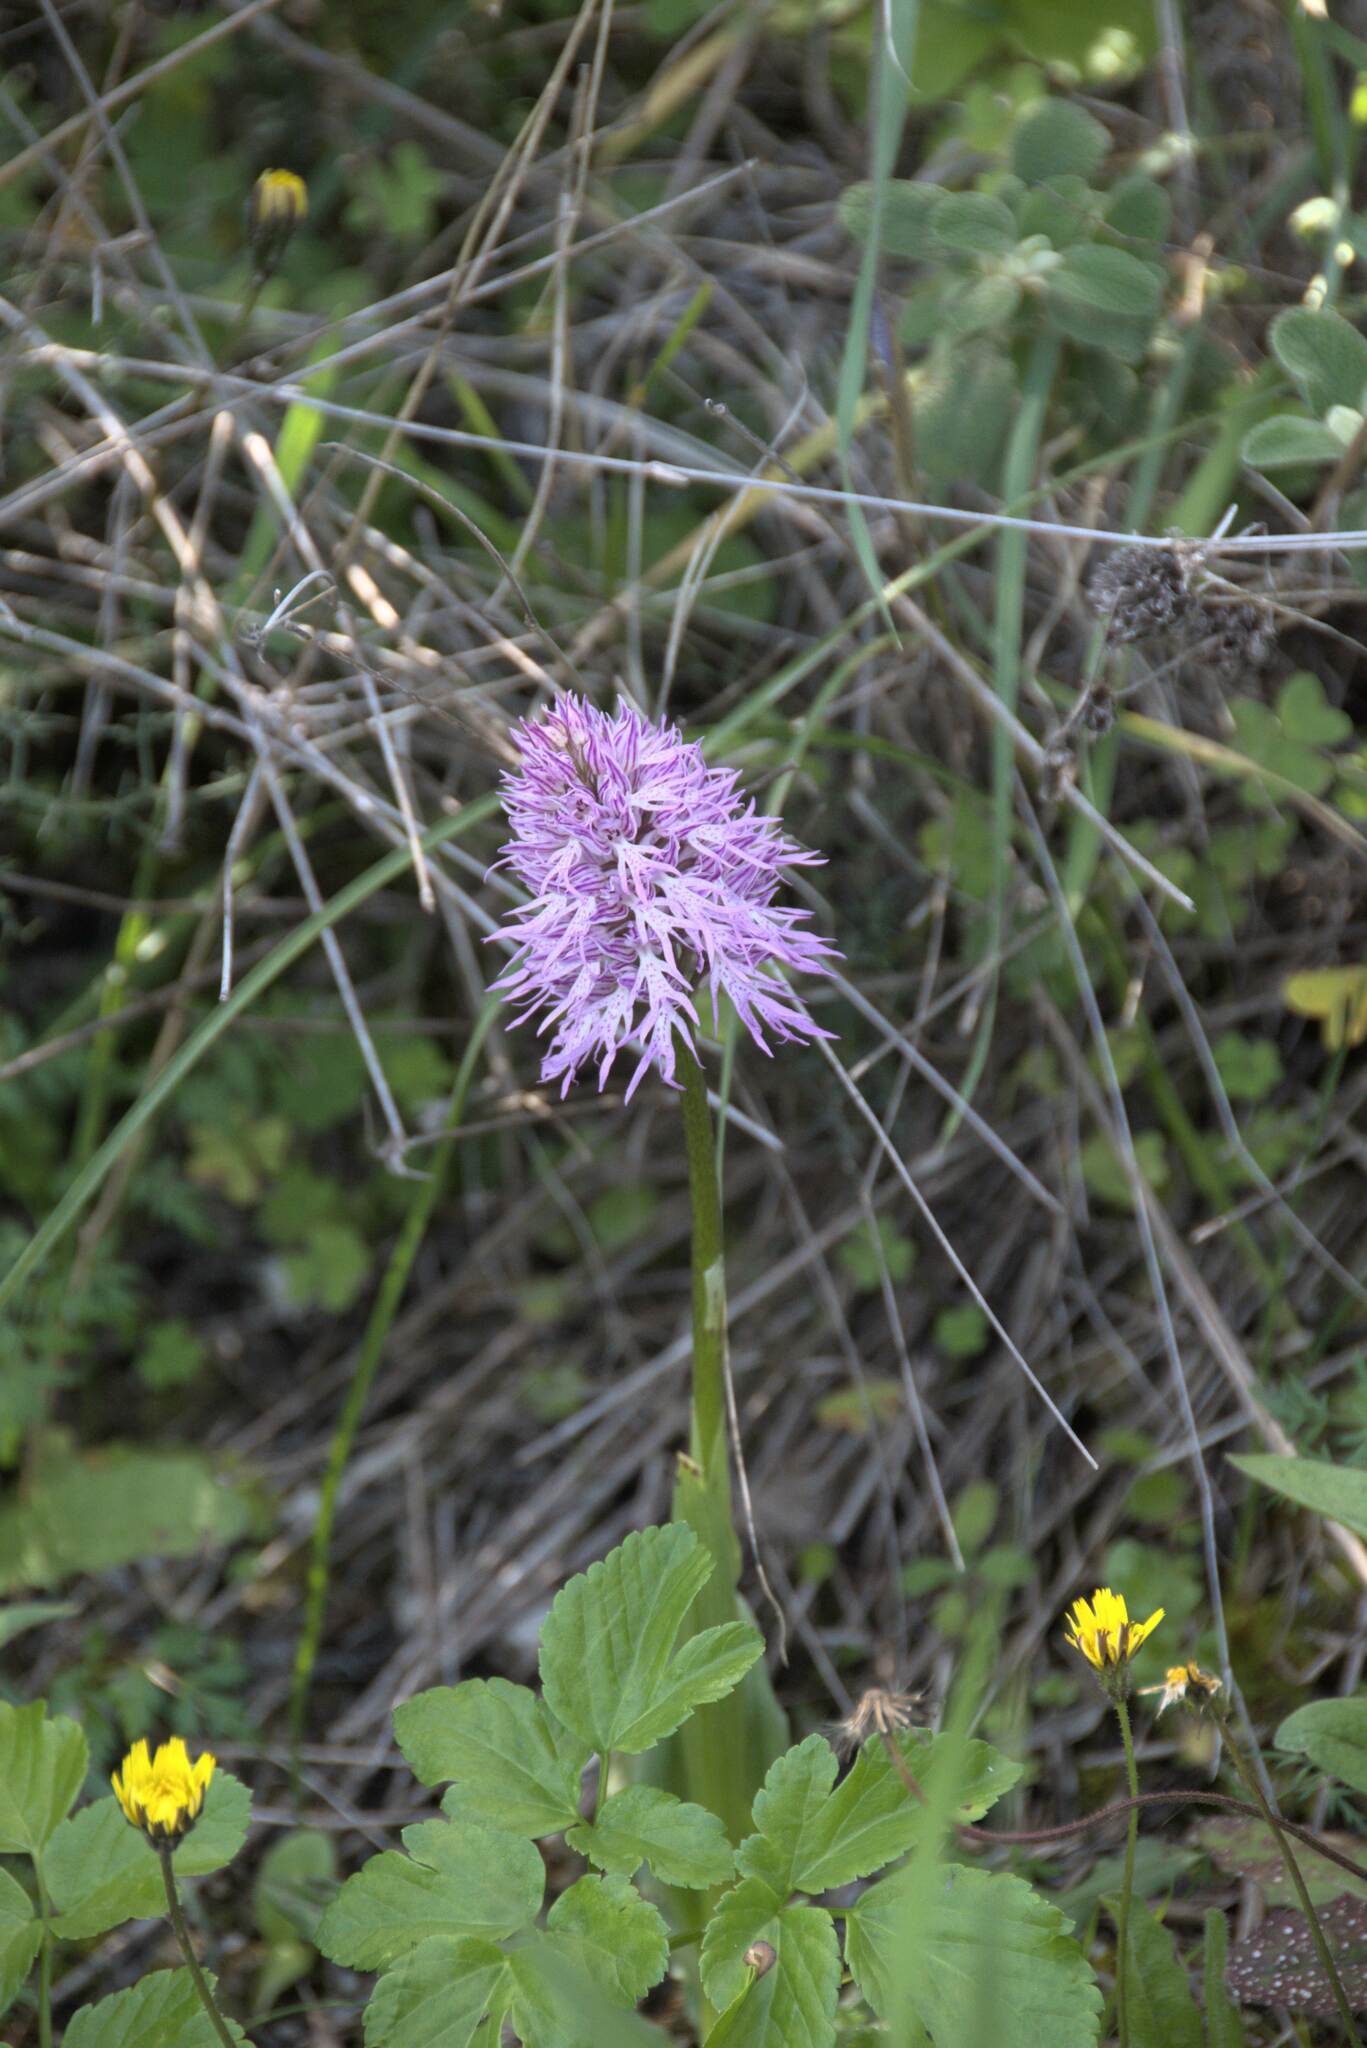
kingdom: Plantae
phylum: Tracheophyta
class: Liliopsida
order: Asparagales
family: Orchidaceae
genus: Orchis
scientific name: Orchis italica
